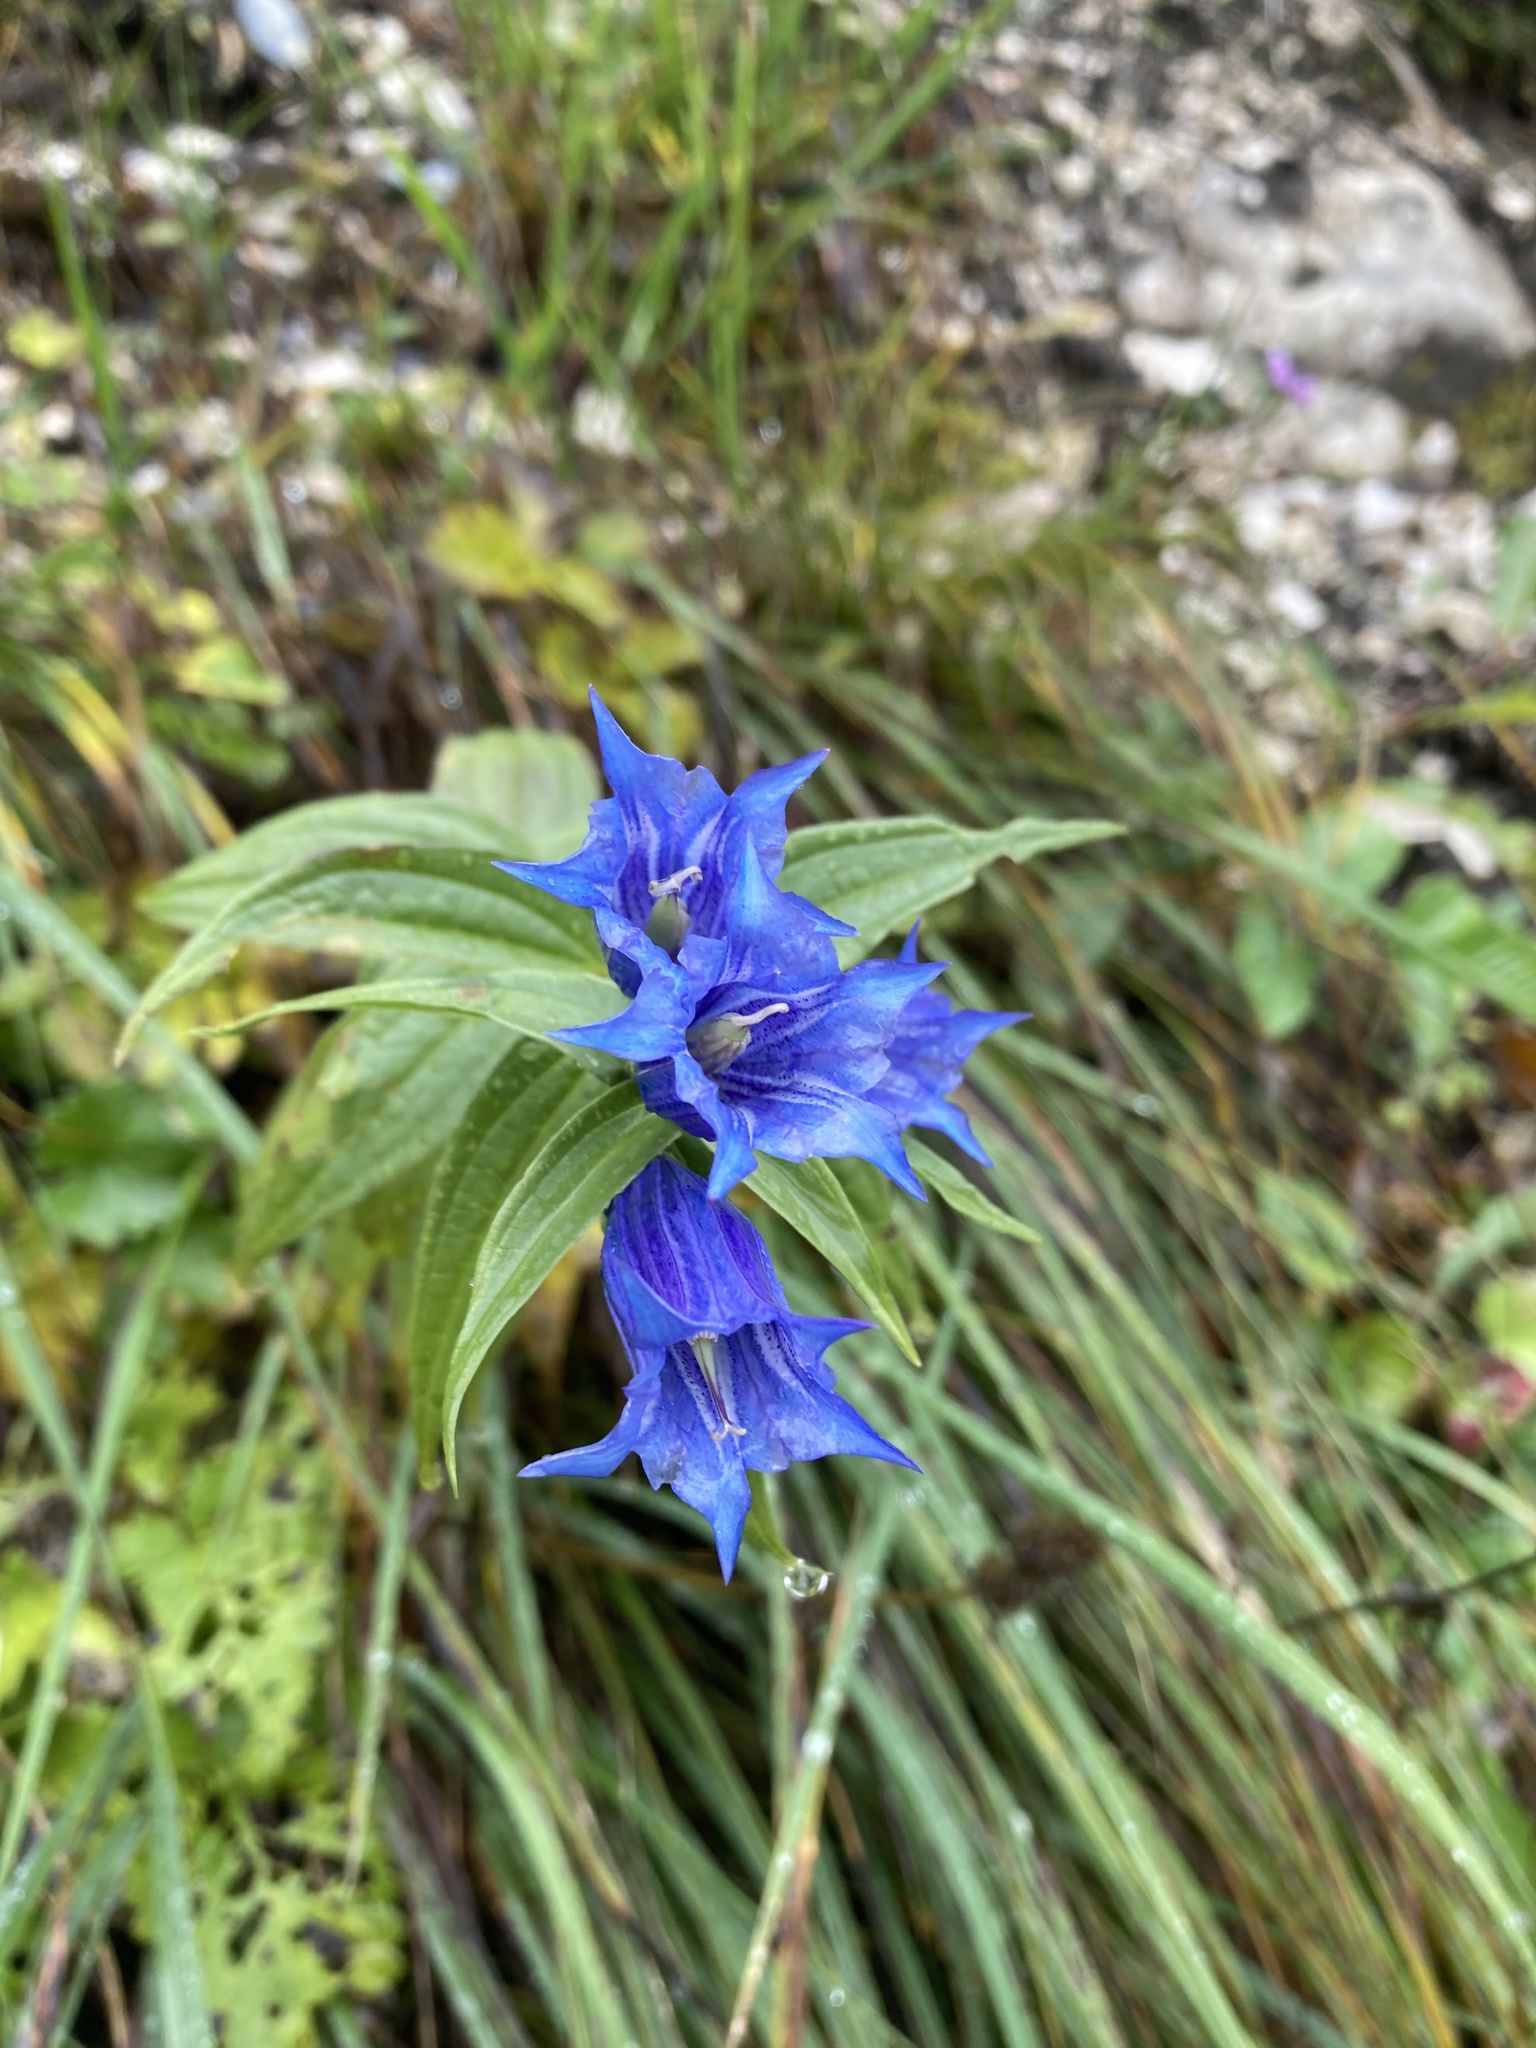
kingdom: Plantae
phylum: Tracheophyta
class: Magnoliopsida
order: Gentianales
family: Gentianaceae
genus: Gentiana
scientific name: Gentiana asclepiadea
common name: Willow gentian
